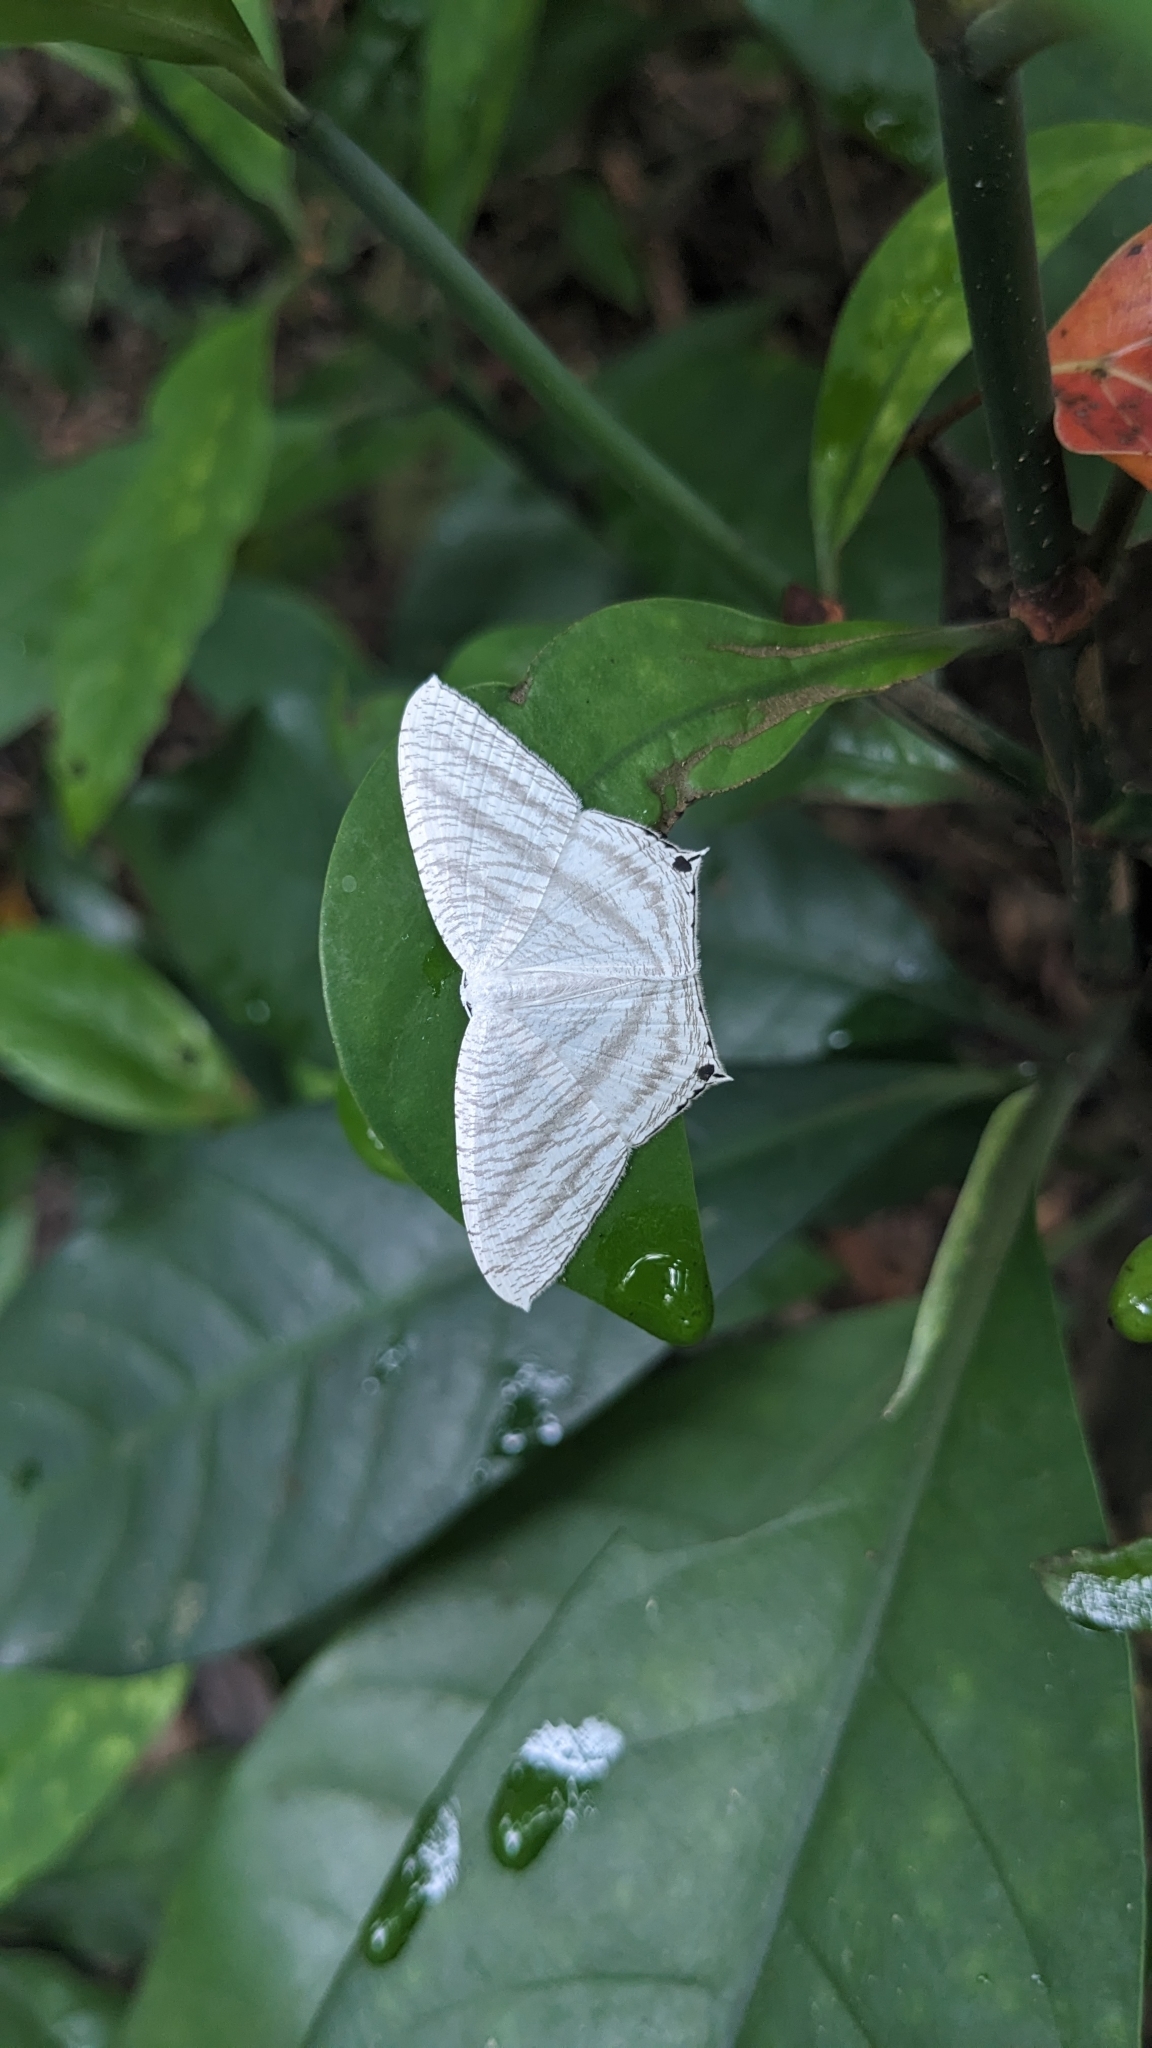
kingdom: Animalia
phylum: Arthropoda
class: Insecta
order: Lepidoptera
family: Uraniidae
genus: Micronia
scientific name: Micronia aculeata
